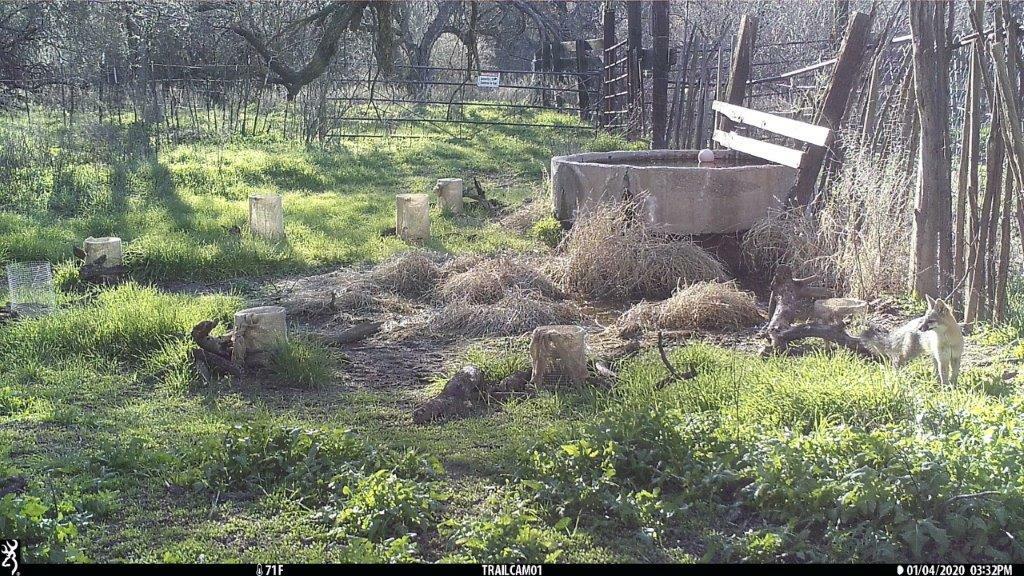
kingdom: Animalia
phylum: Chordata
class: Mammalia
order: Carnivora
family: Canidae
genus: Urocyon
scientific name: Urocyon cinereoargenteus
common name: Gray fox
